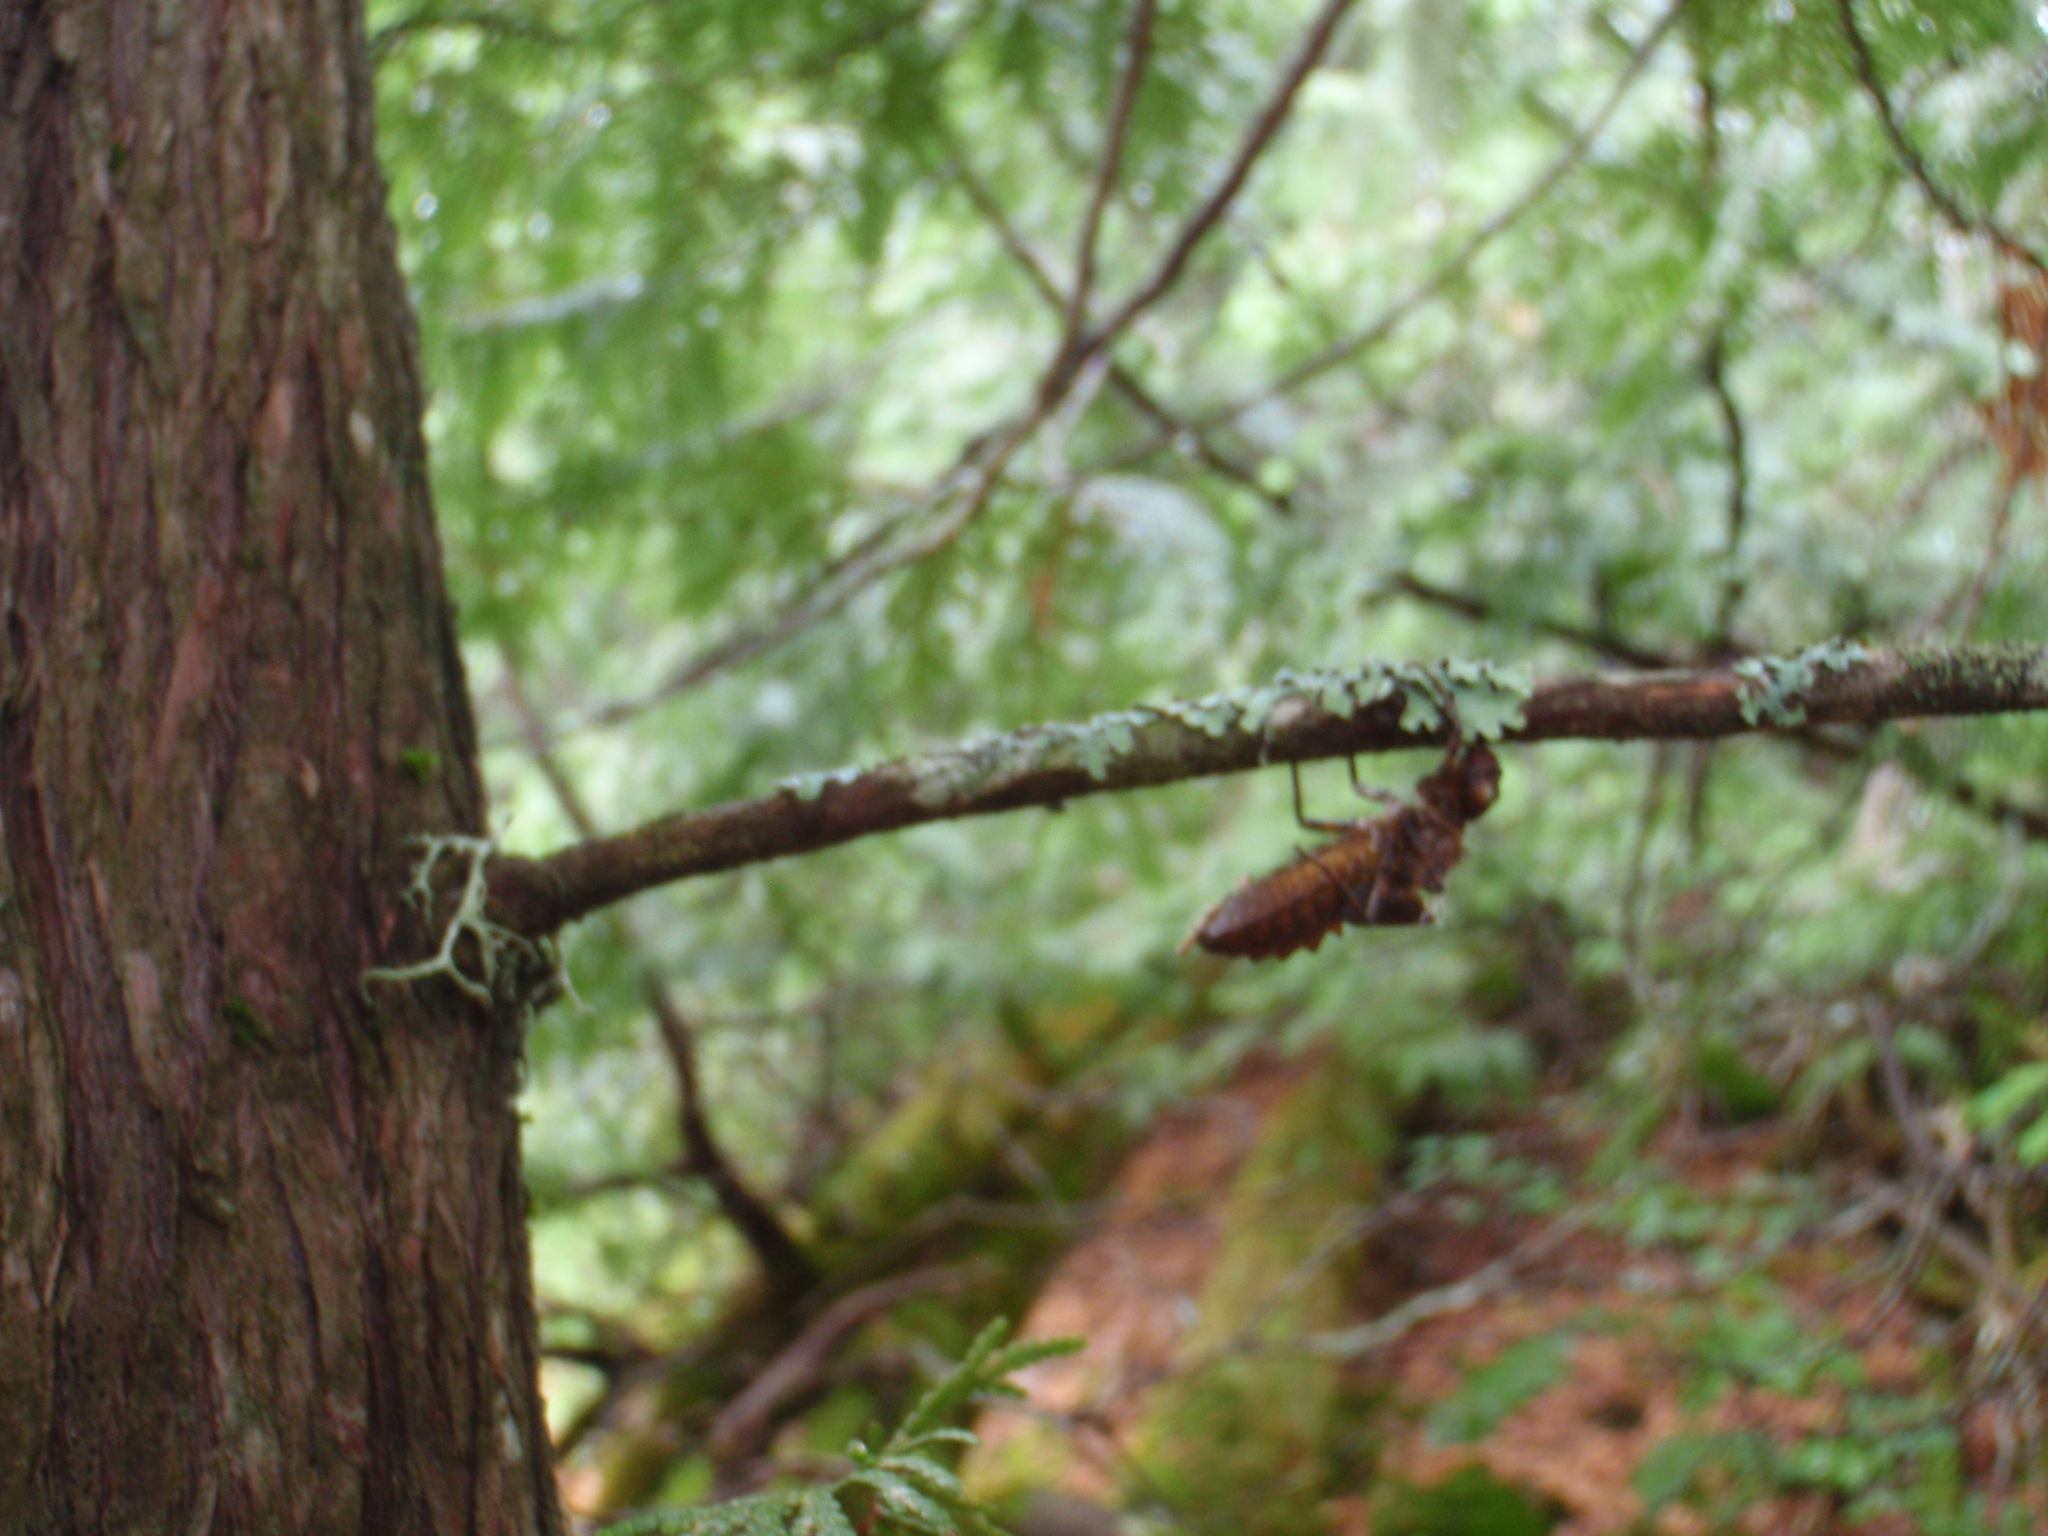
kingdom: Animalia
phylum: Arthropoda
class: Insecta
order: Odonata
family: Corduliidae
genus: Neurocordulia
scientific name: Neurocordulia michaeli
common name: Broad-tailed shadowdragon
